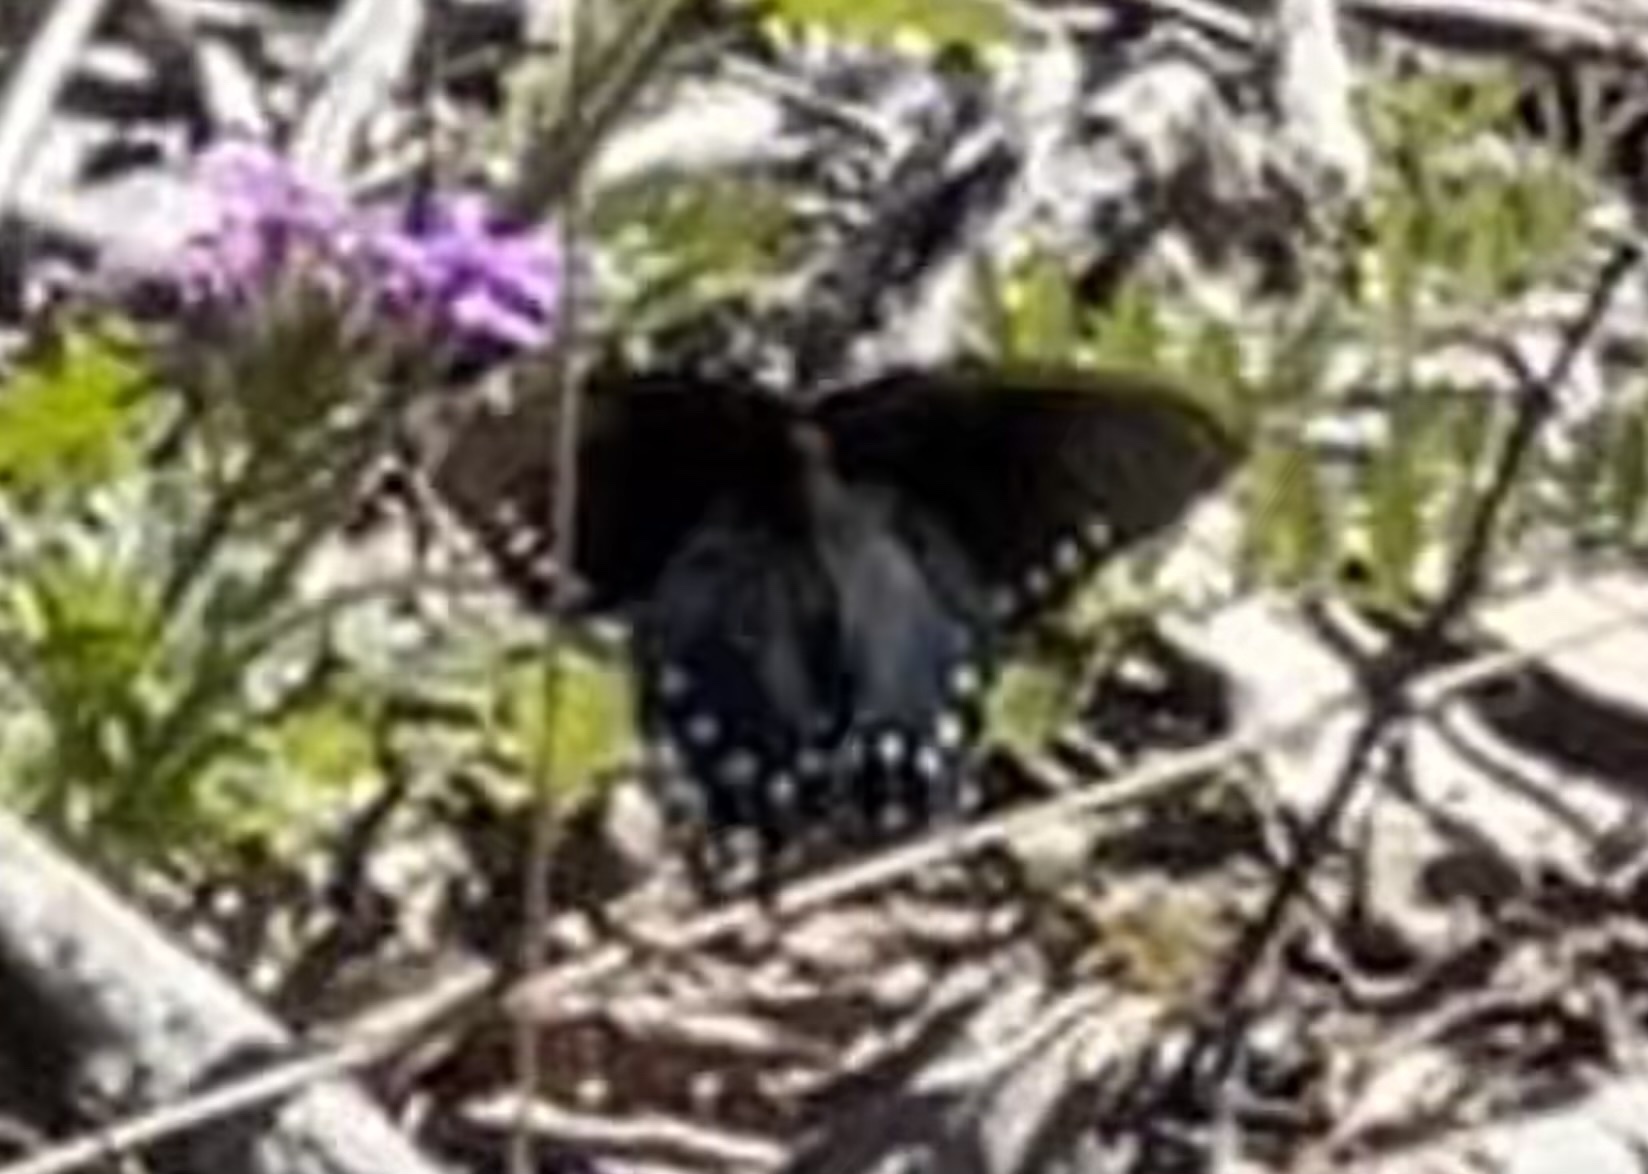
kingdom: Animalia
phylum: Arthropoda
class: Insecta
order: Lepidoptera
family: Papilionidae
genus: Battus
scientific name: Battus philenor
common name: Pipevine swallowtail
